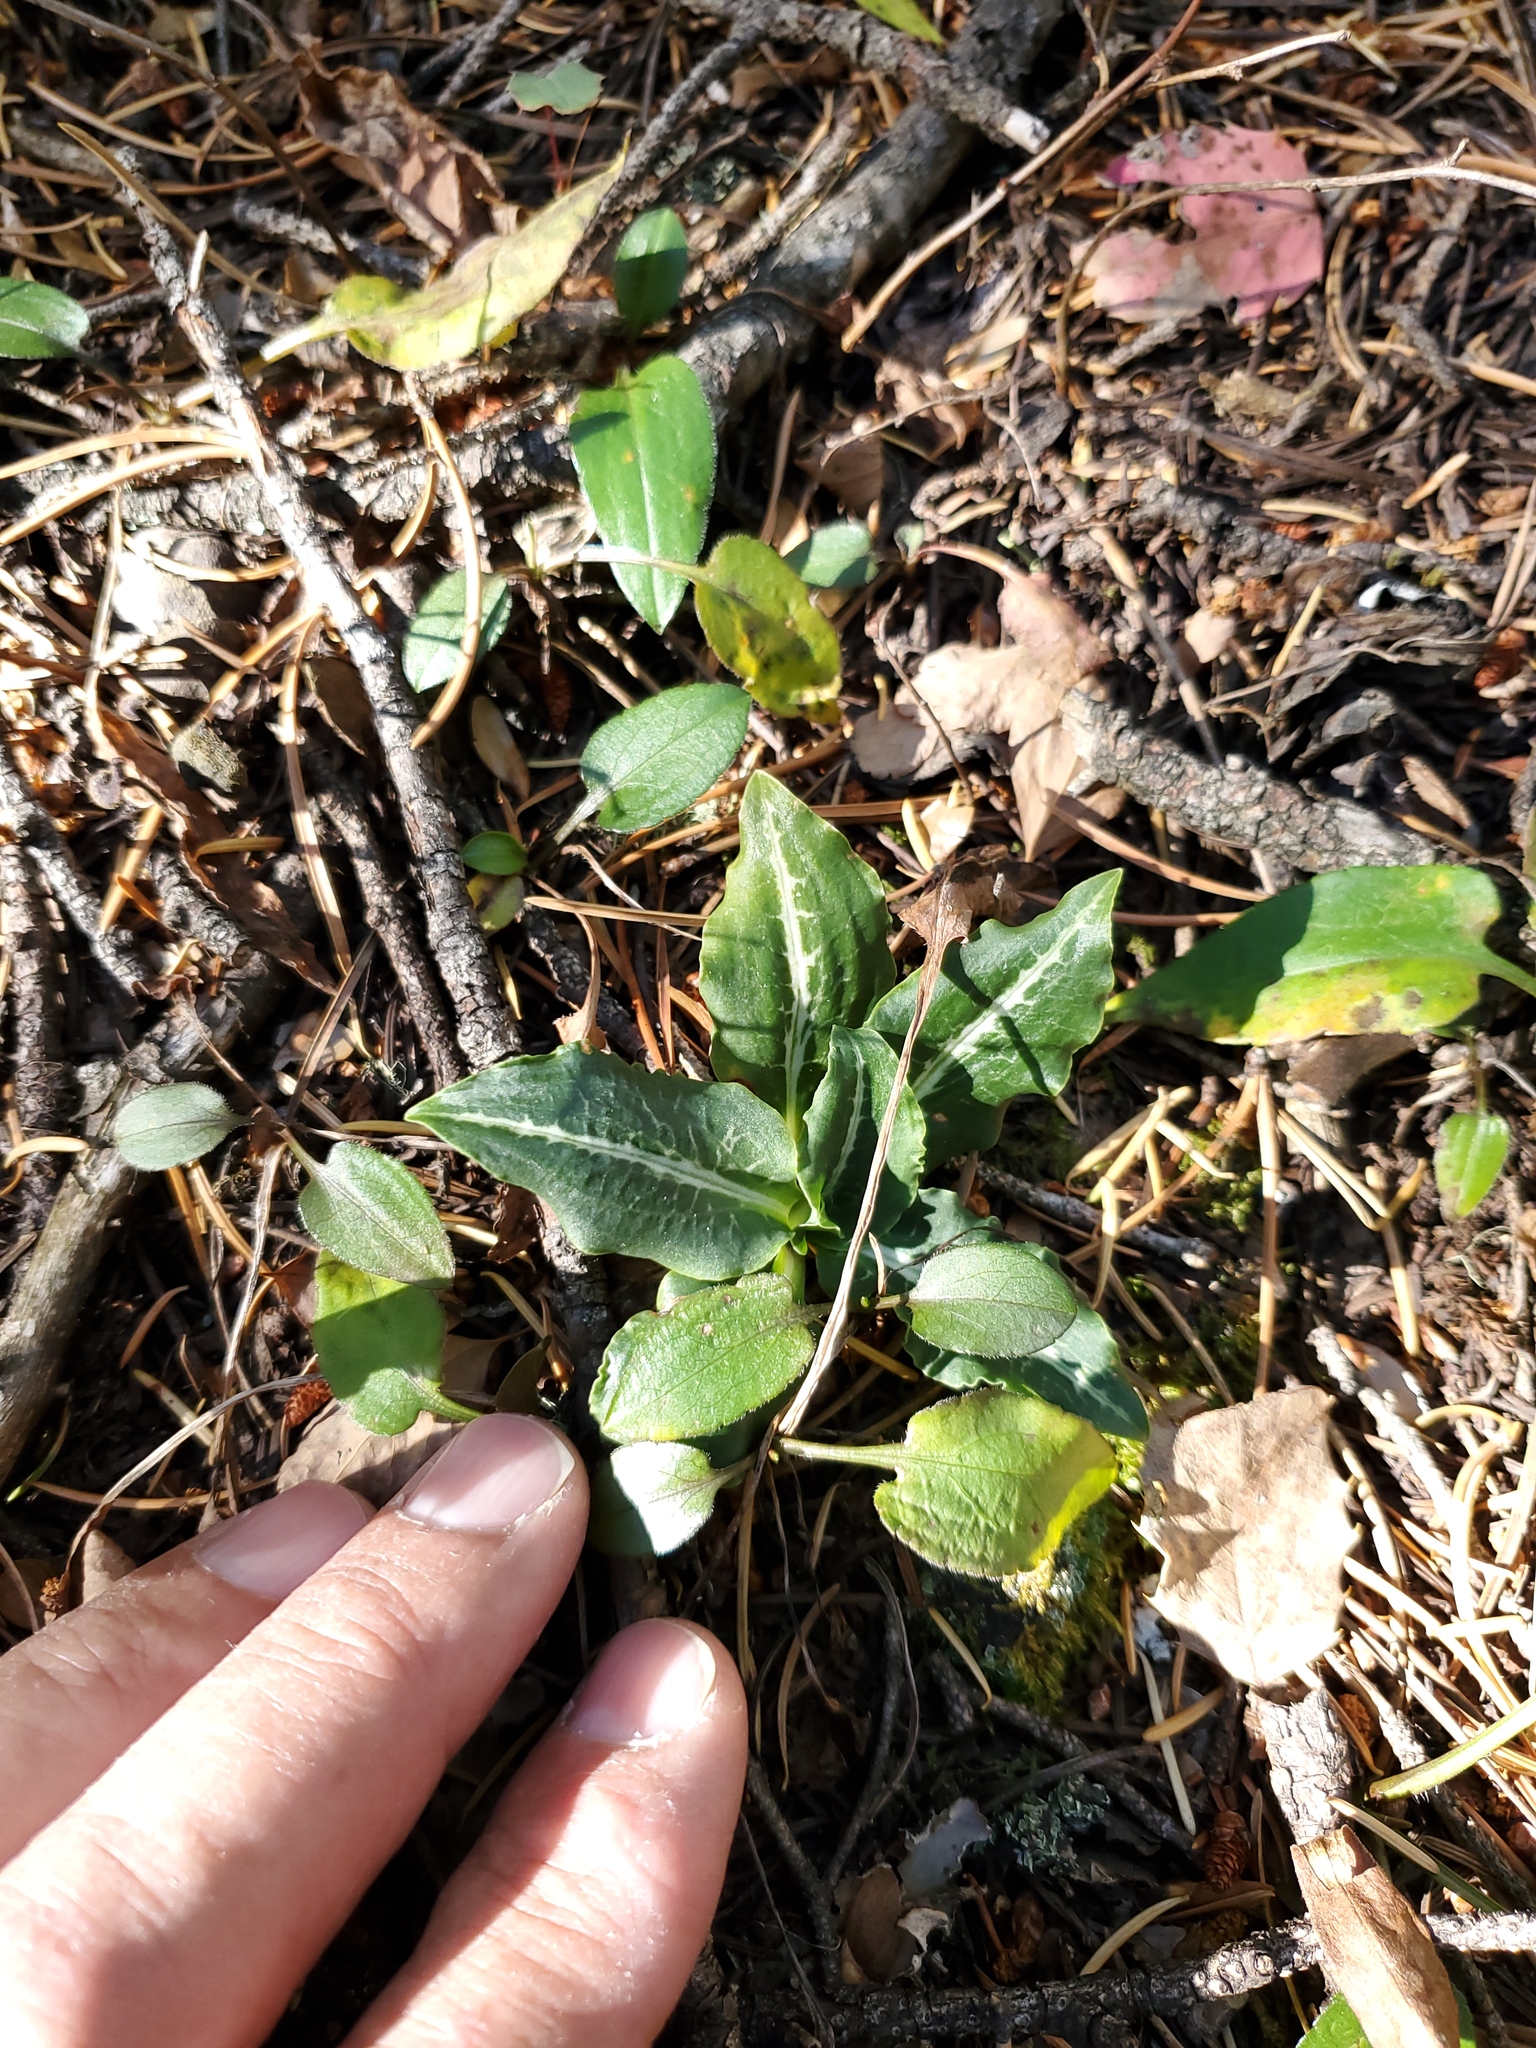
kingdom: Plantae
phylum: Tracheophyta
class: Liliopsida
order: Asparagales
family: Orchidaceae
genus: Goodyera
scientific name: Goodyera oblongifolia
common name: Giant rattlesnake-plantain
